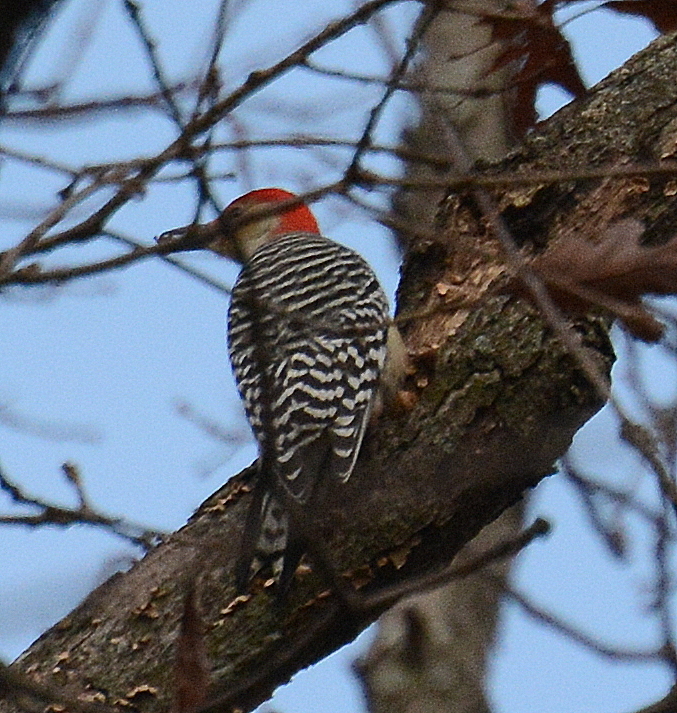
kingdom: Animalia
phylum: Chordata
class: Aves
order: Piciformes
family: Picidae
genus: Melanerpes
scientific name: Melanerpes carolinus
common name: Red-bellied woodpecker
